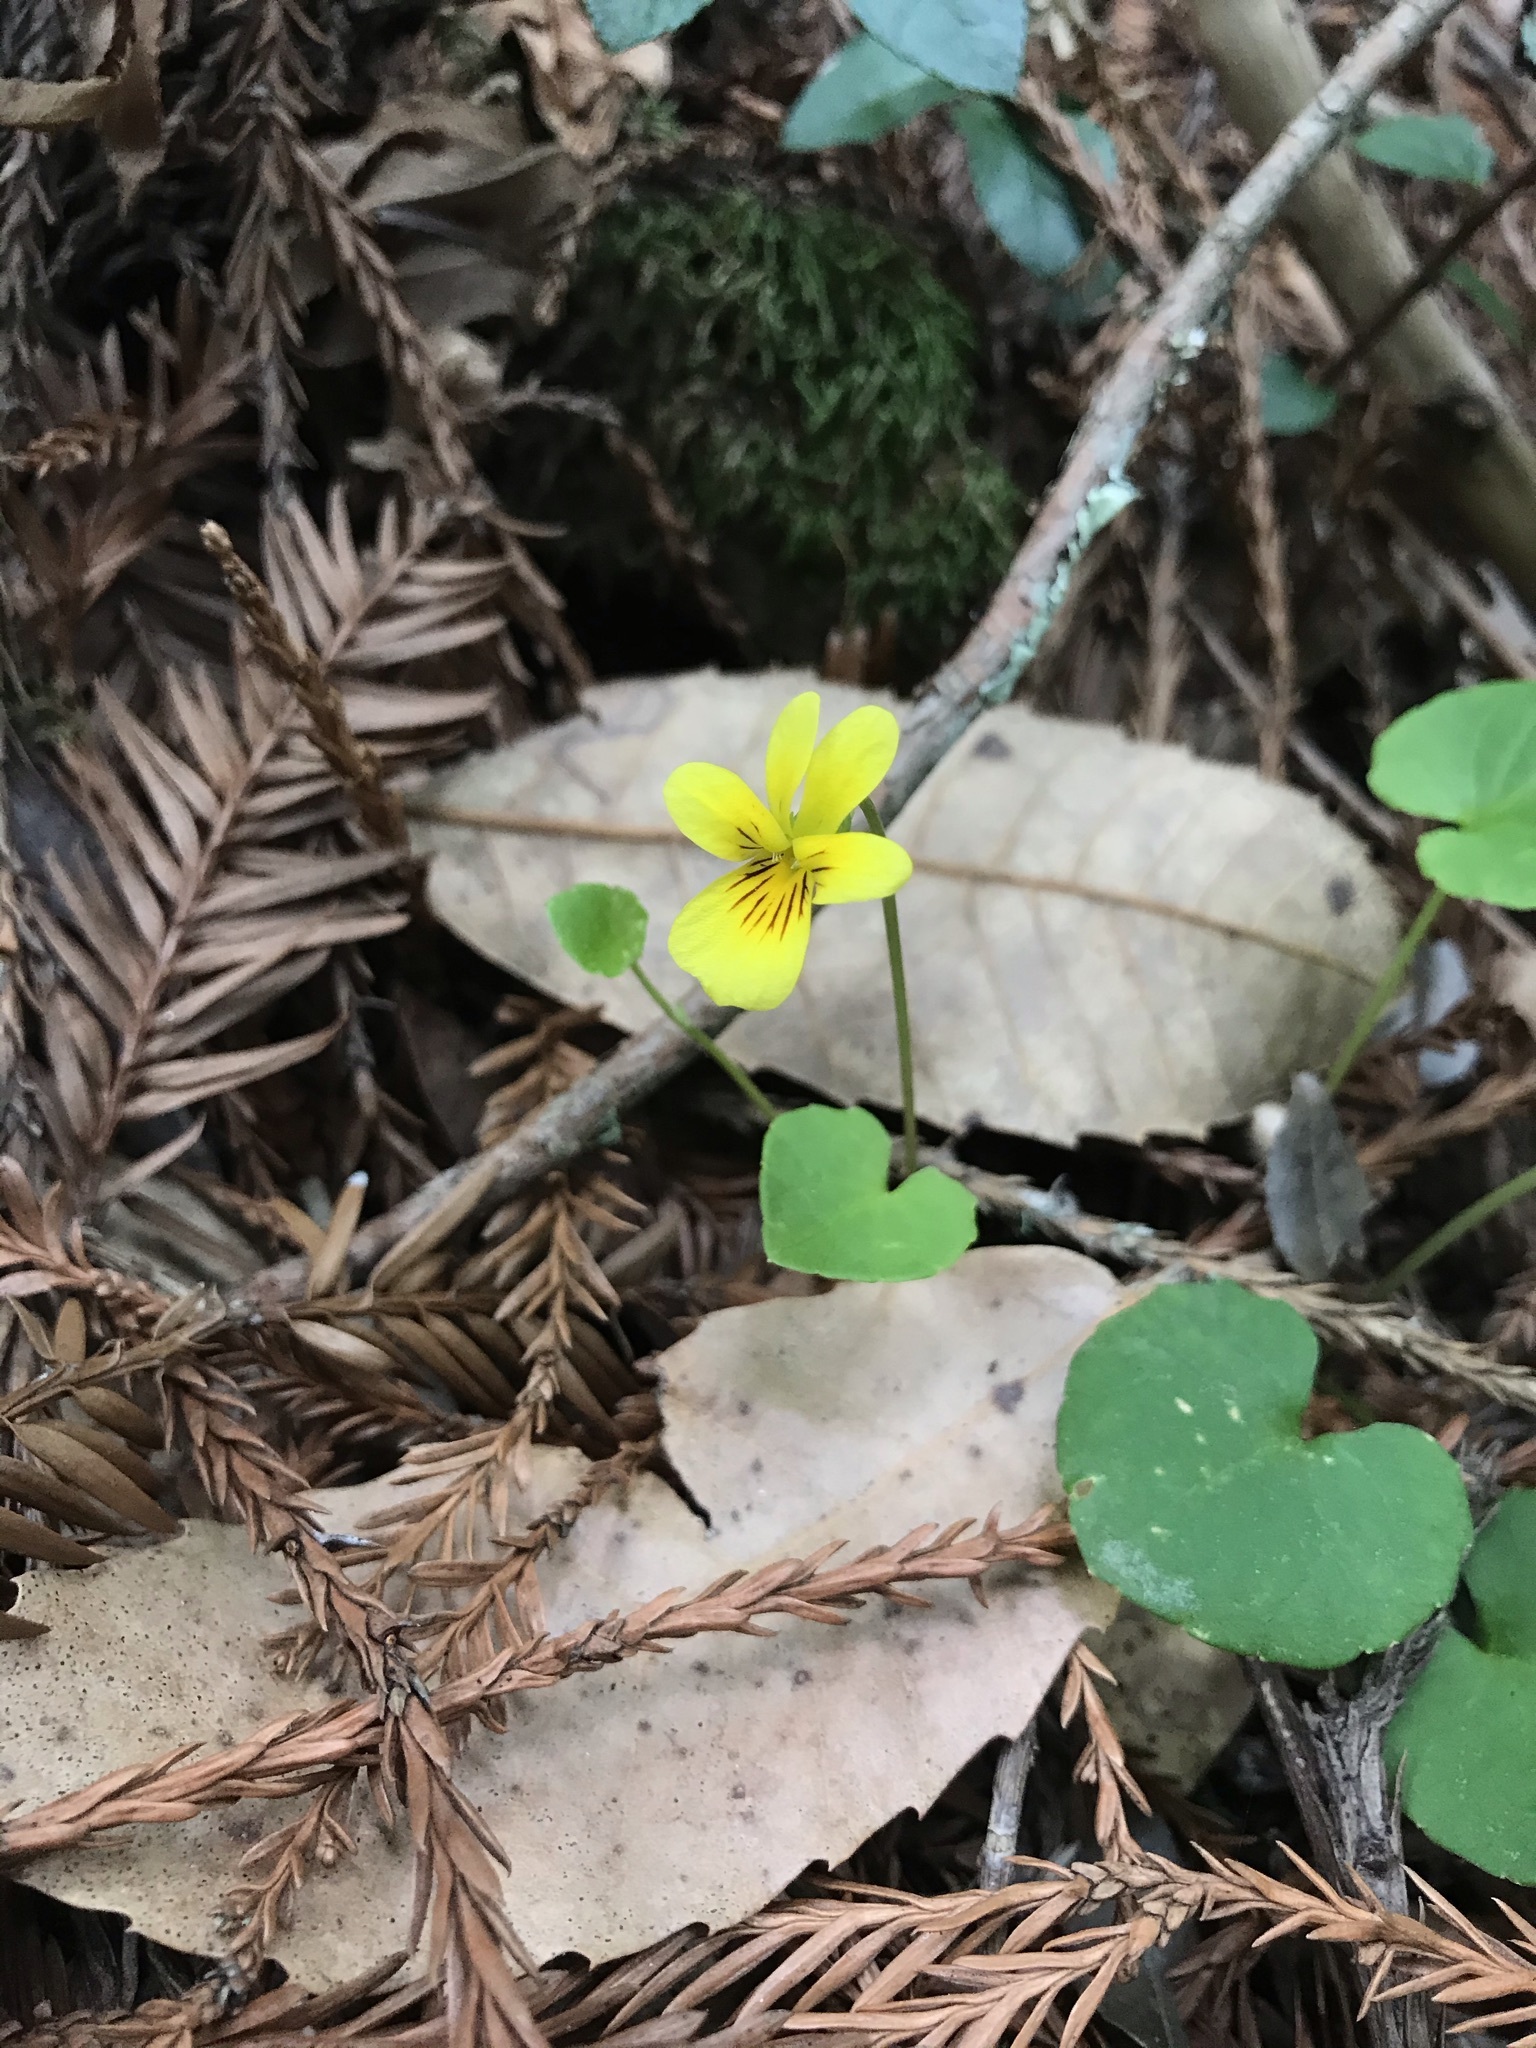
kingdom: Plantae
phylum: Tracheophyta
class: Magnoliopsida
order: Malpighiales
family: Violaceae
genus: Viola
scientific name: Viola sempervirens
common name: Evergreen violet
